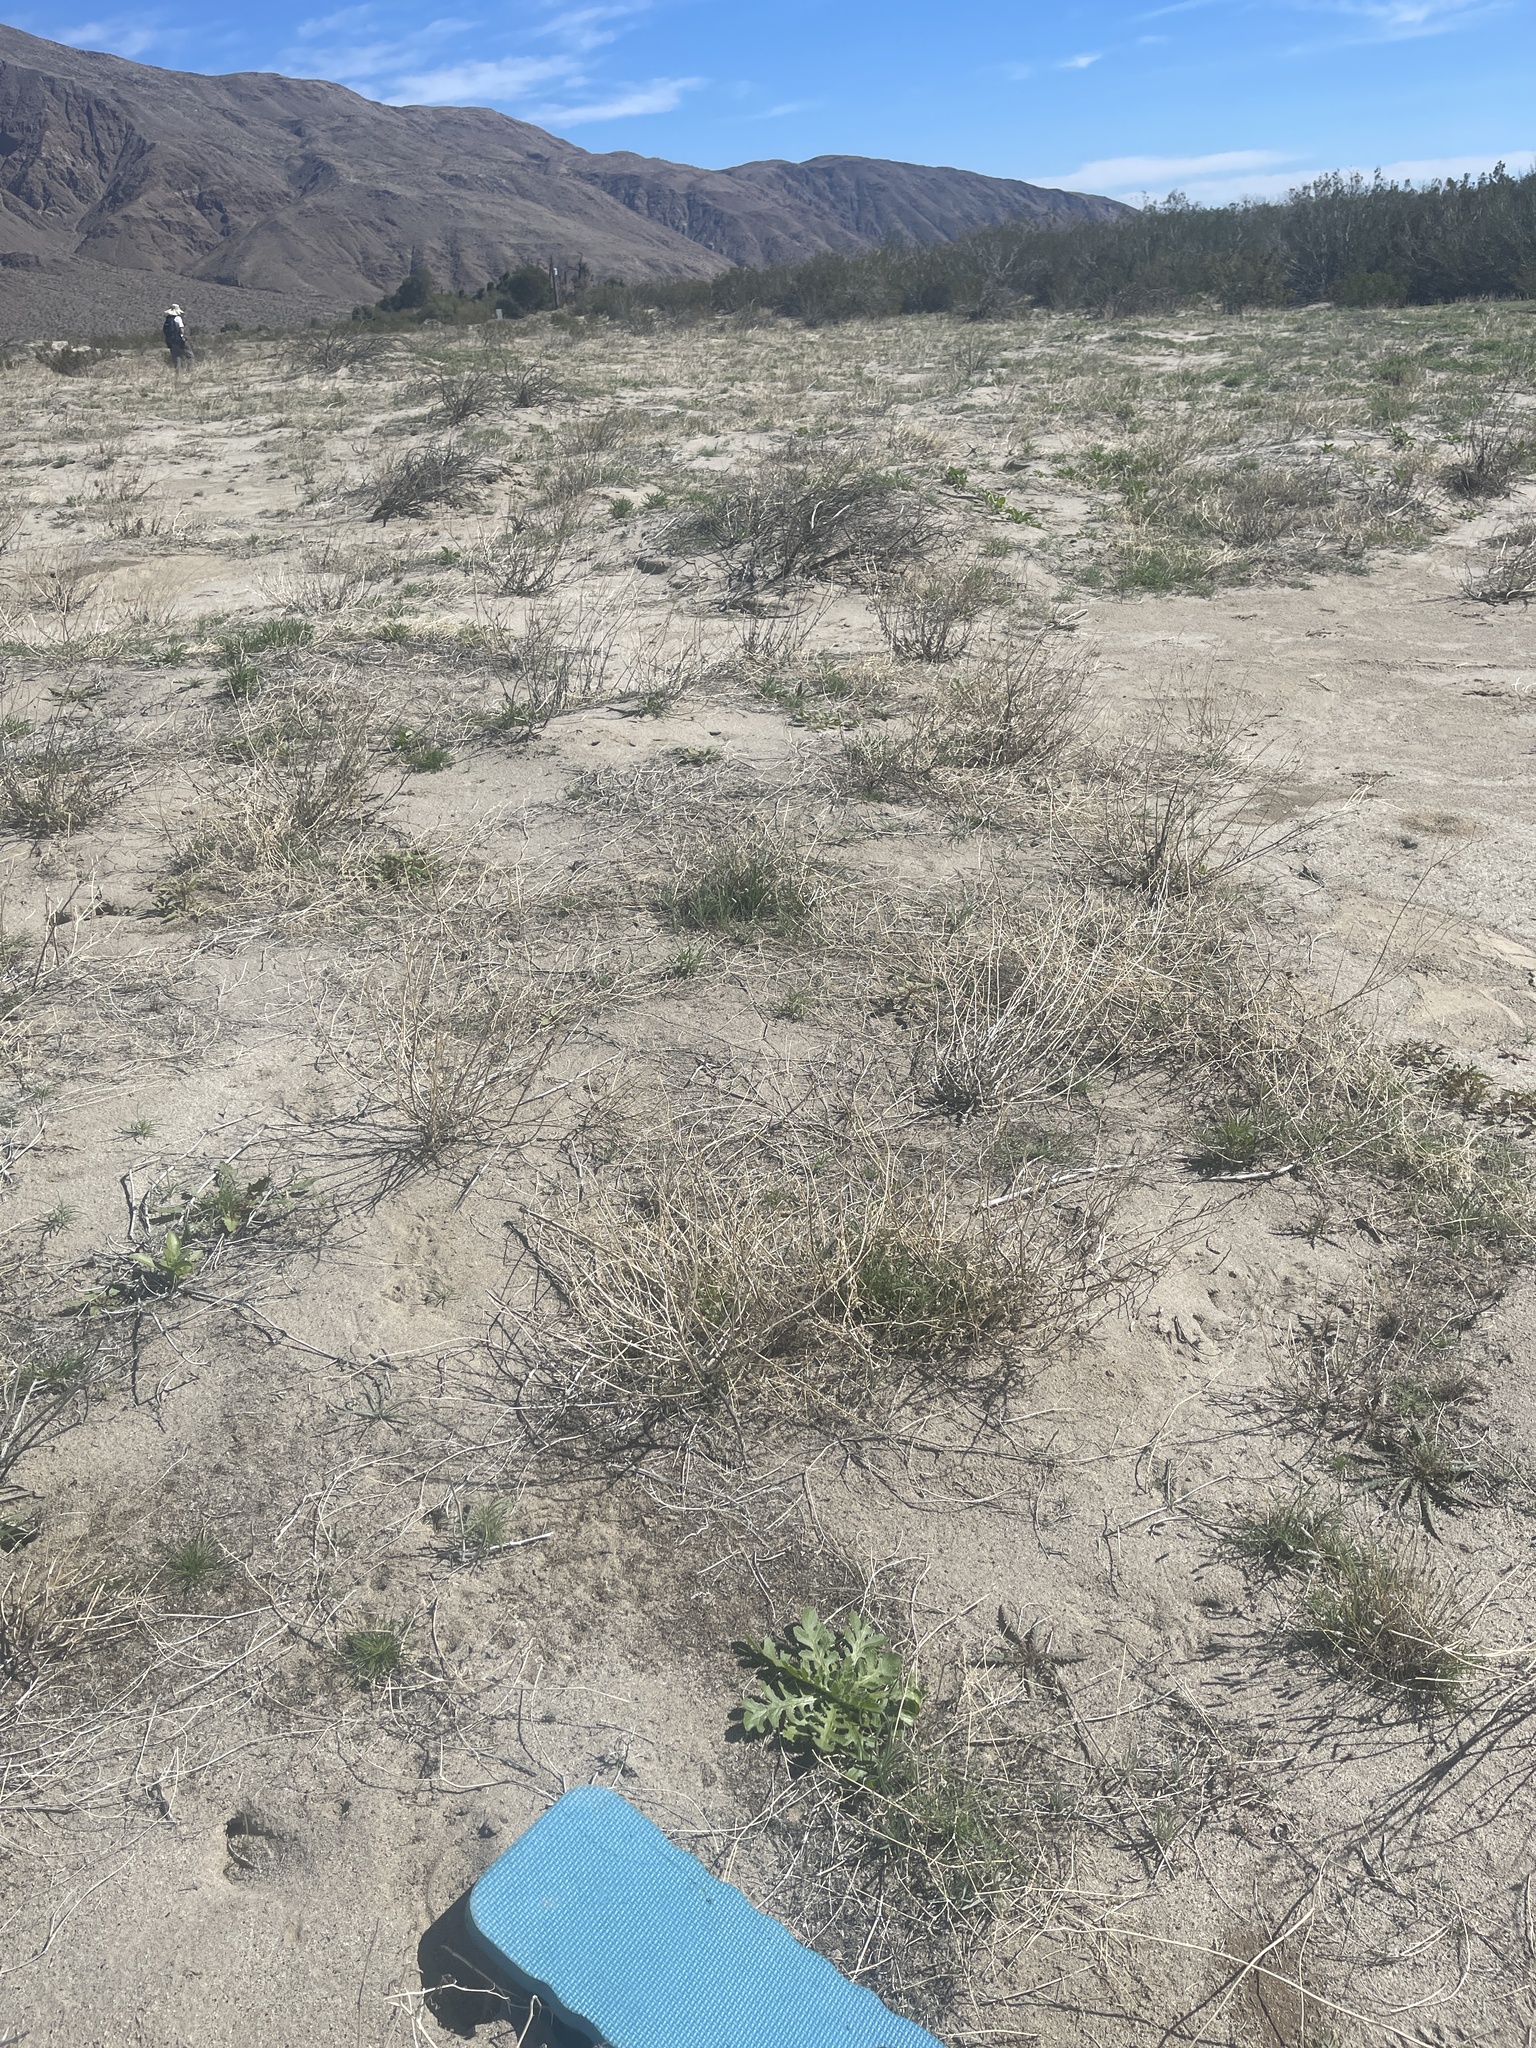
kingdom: Plantae
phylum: Tracheophyta
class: Magnoliopsida
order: Asterales
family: Asteraceae
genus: Volutaria
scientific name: Volutaria tubuliflora
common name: Desert knapweed
